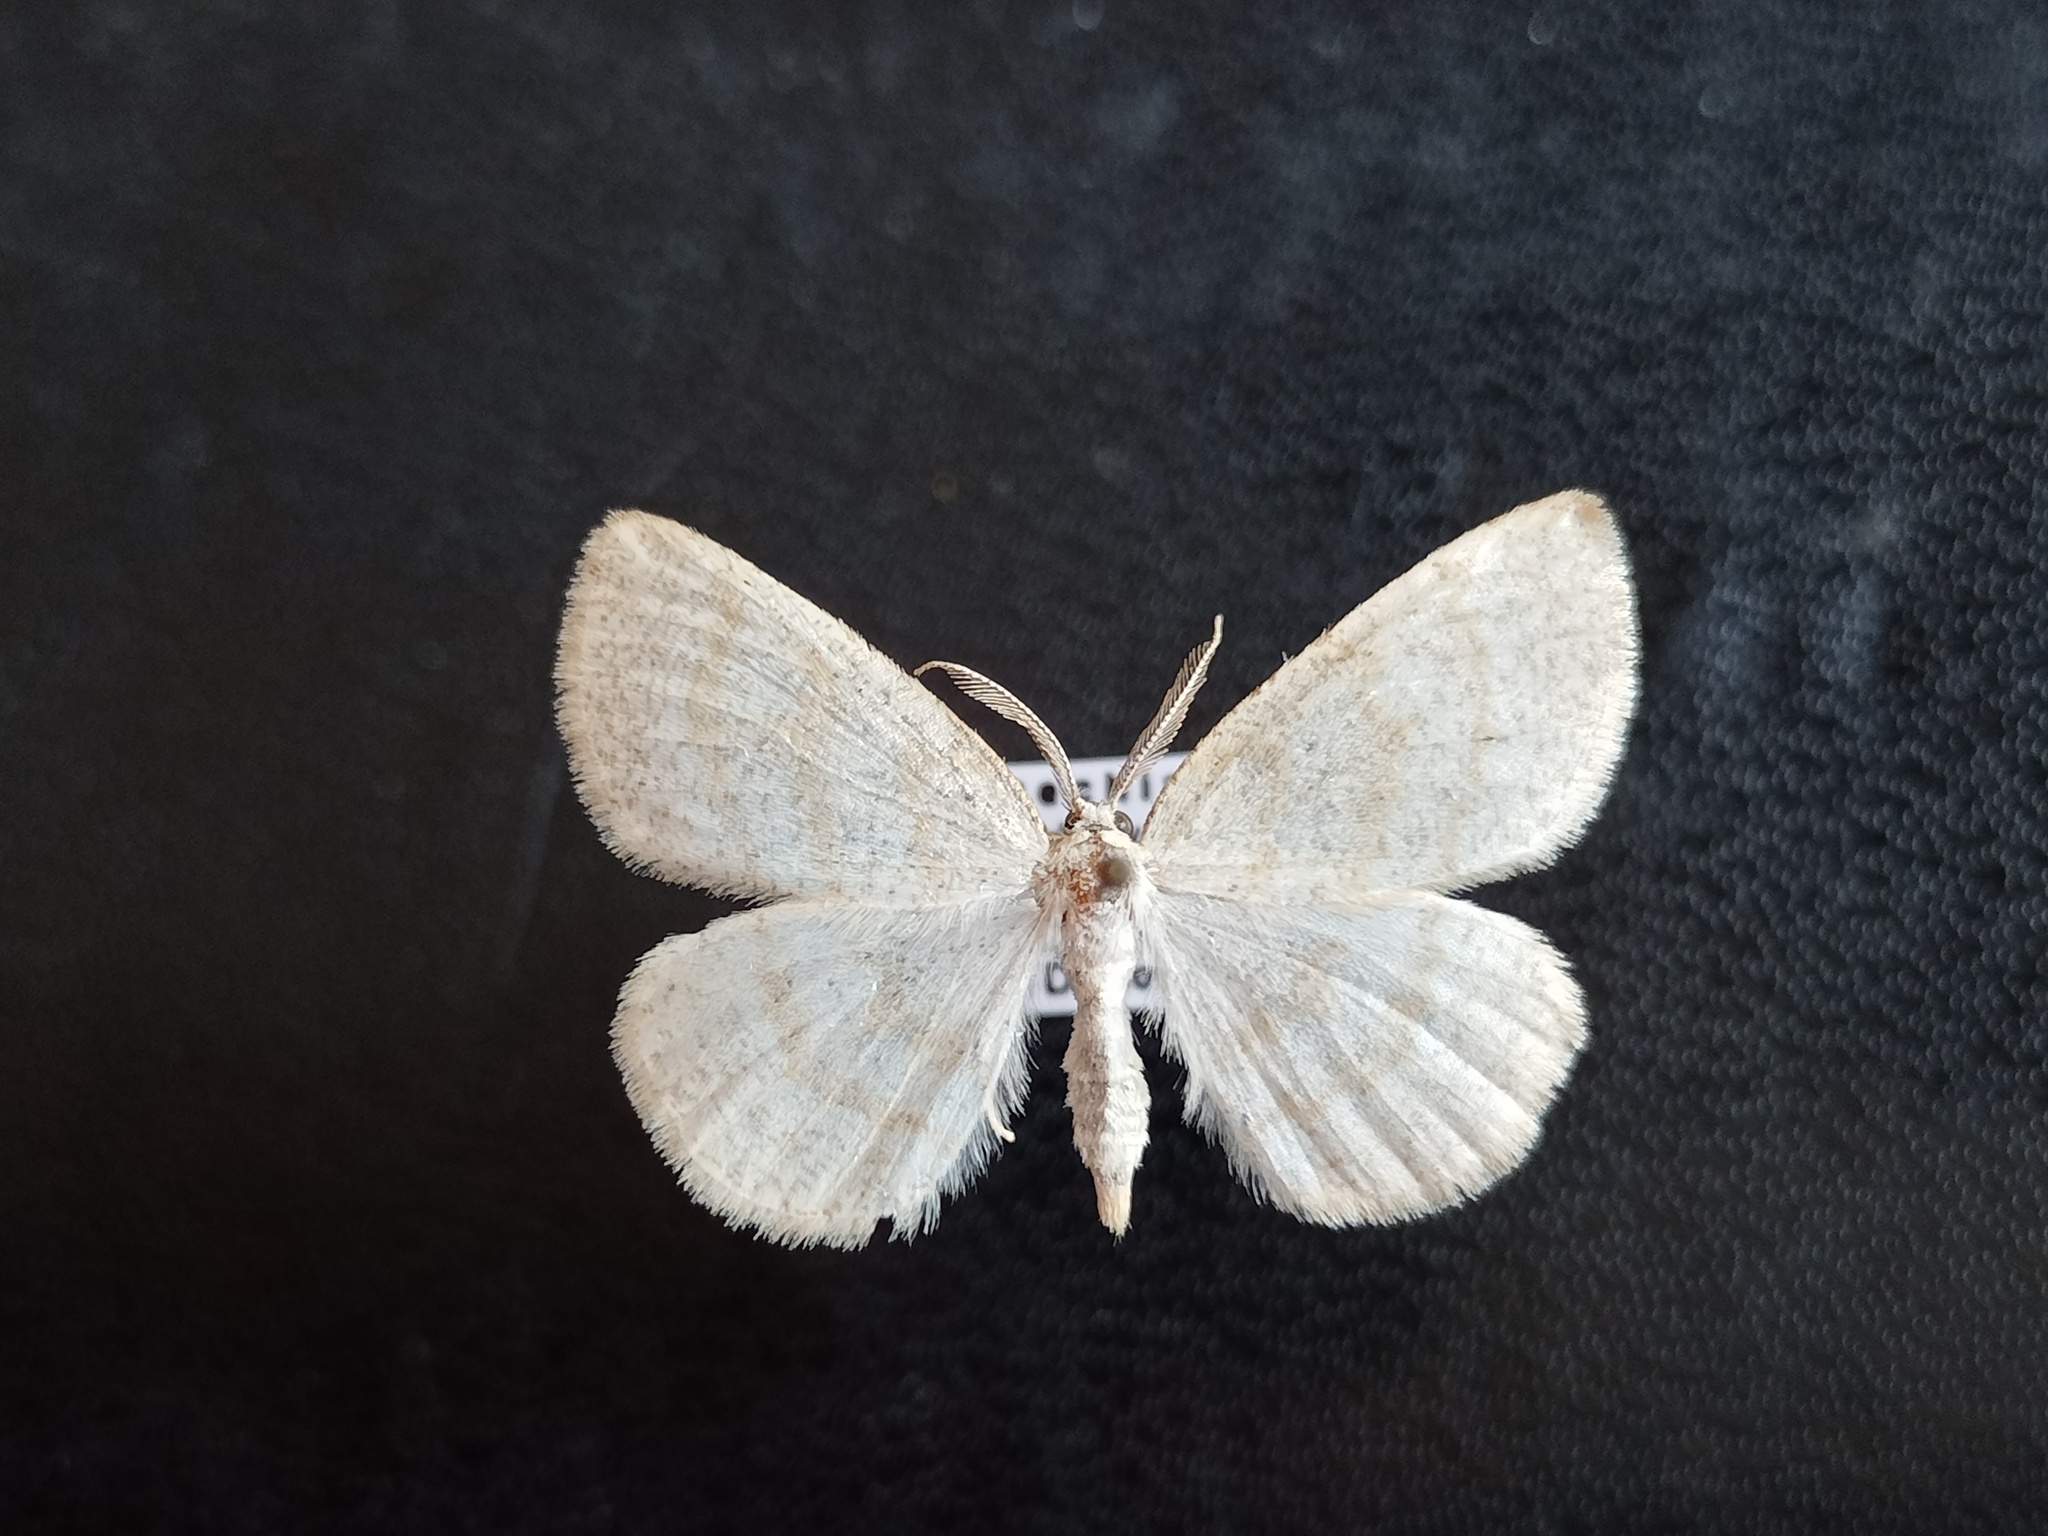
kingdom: Animalia
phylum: Arthropoda
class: Insecta
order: Lepidoptera
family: Geometridae
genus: Cabera
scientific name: Cabera exanthemata
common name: Common wave
